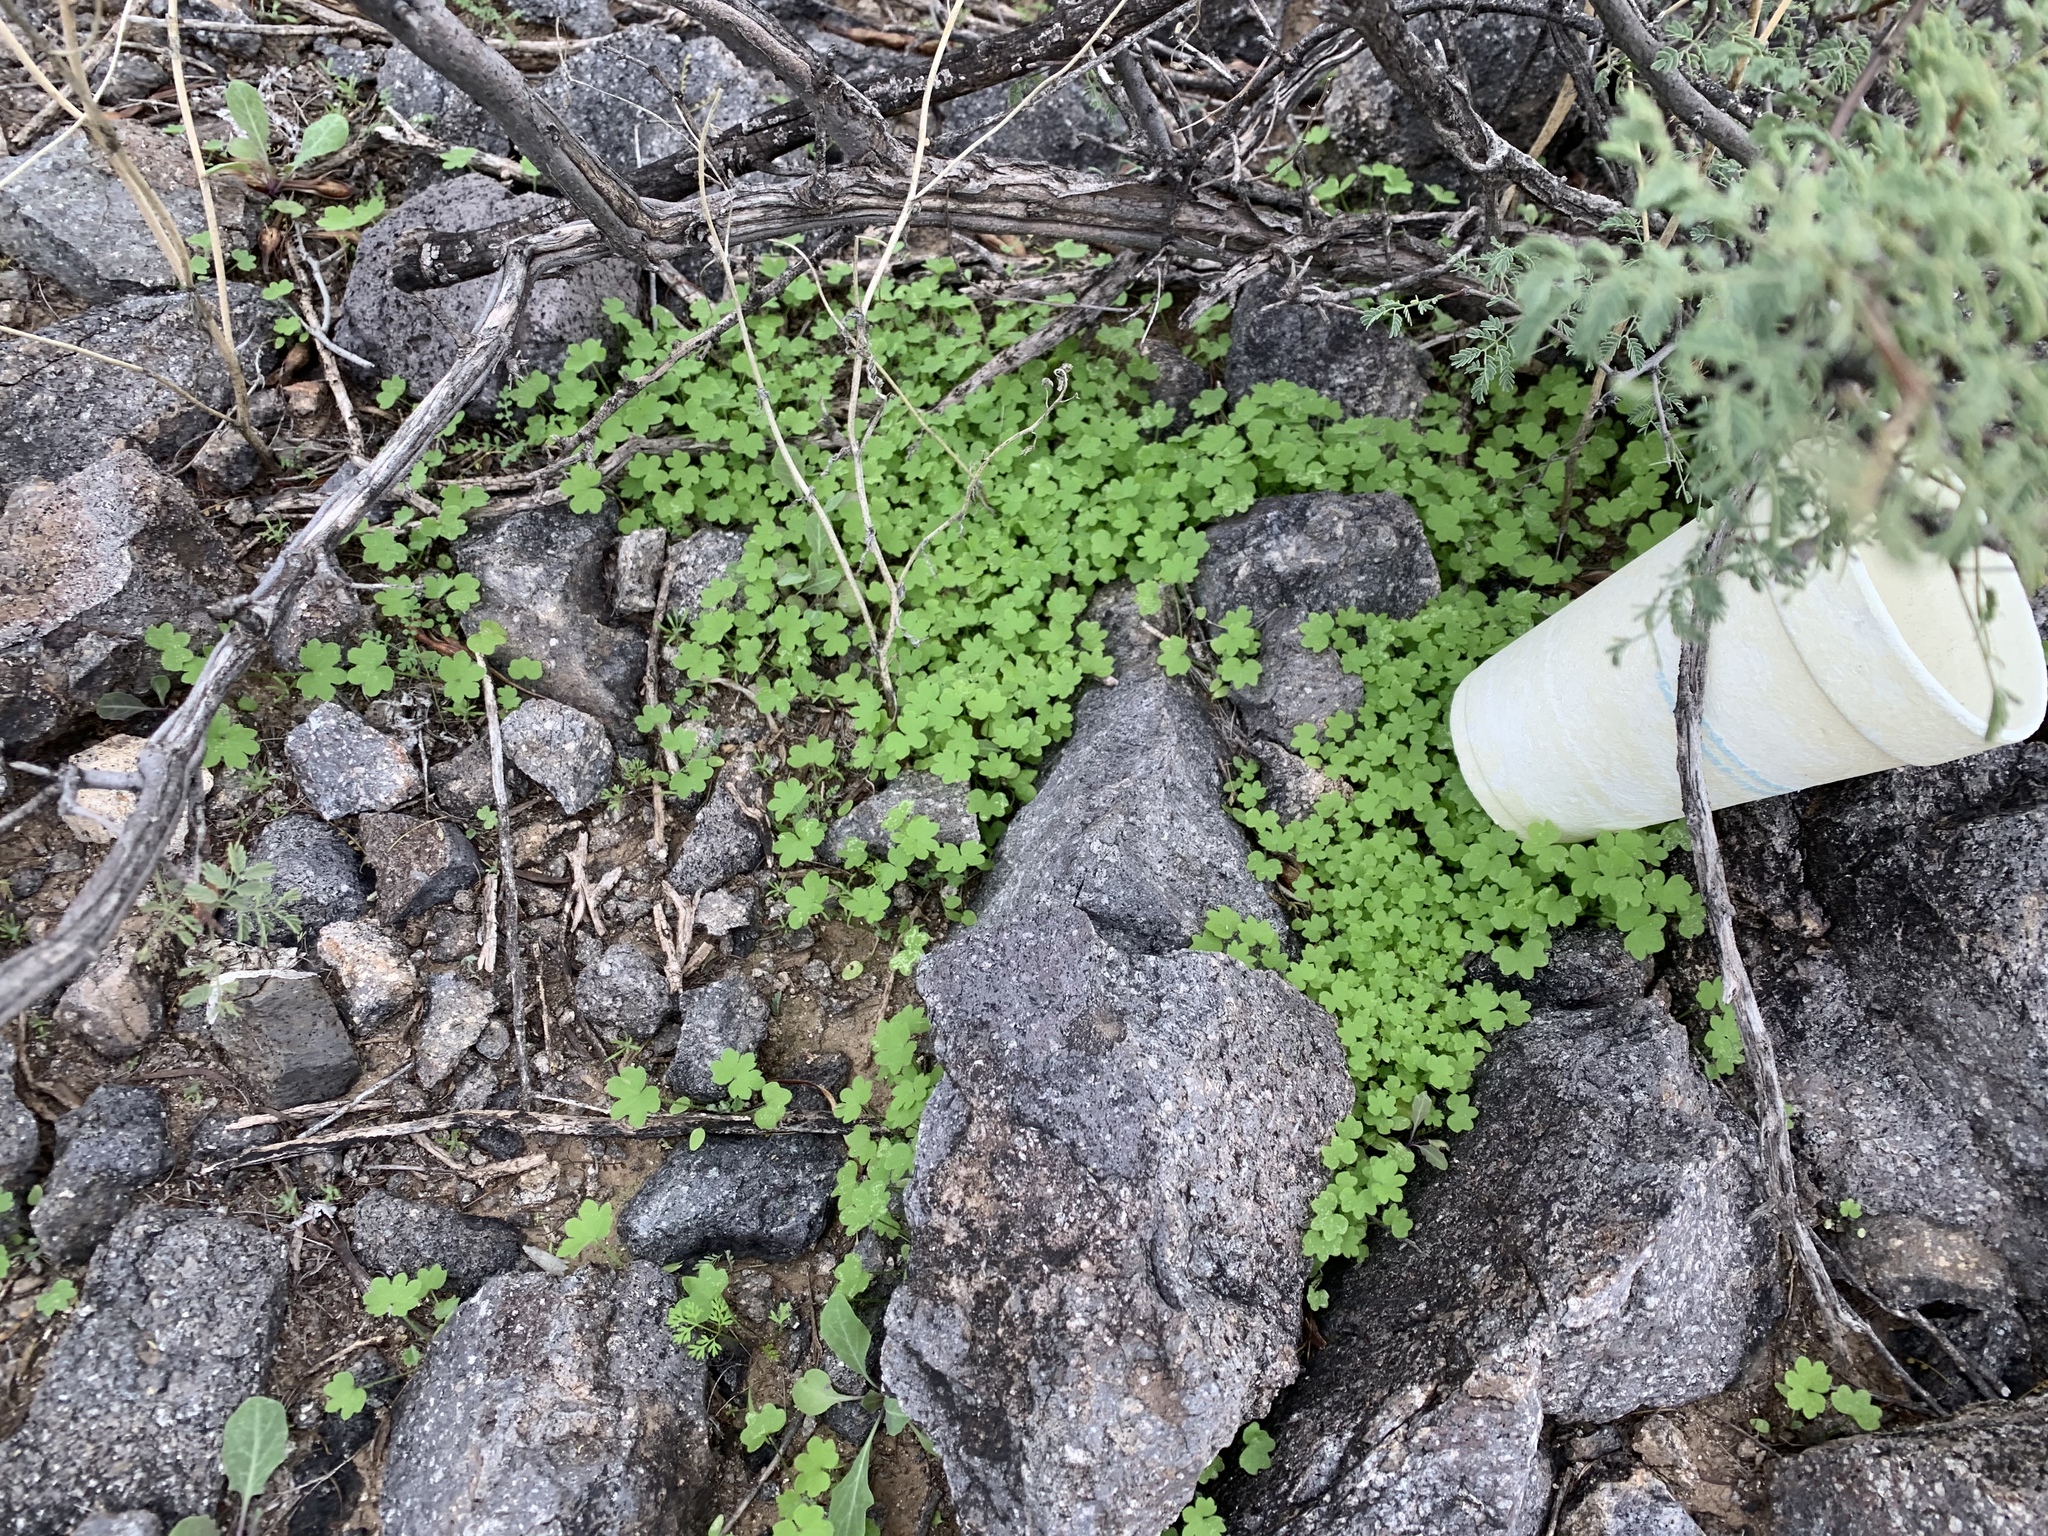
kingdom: Plantae
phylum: Tracheophyta
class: Magnoliopsida
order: Apiales
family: Apiaceae
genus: Bowlesia
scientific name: Bowlesia incana
